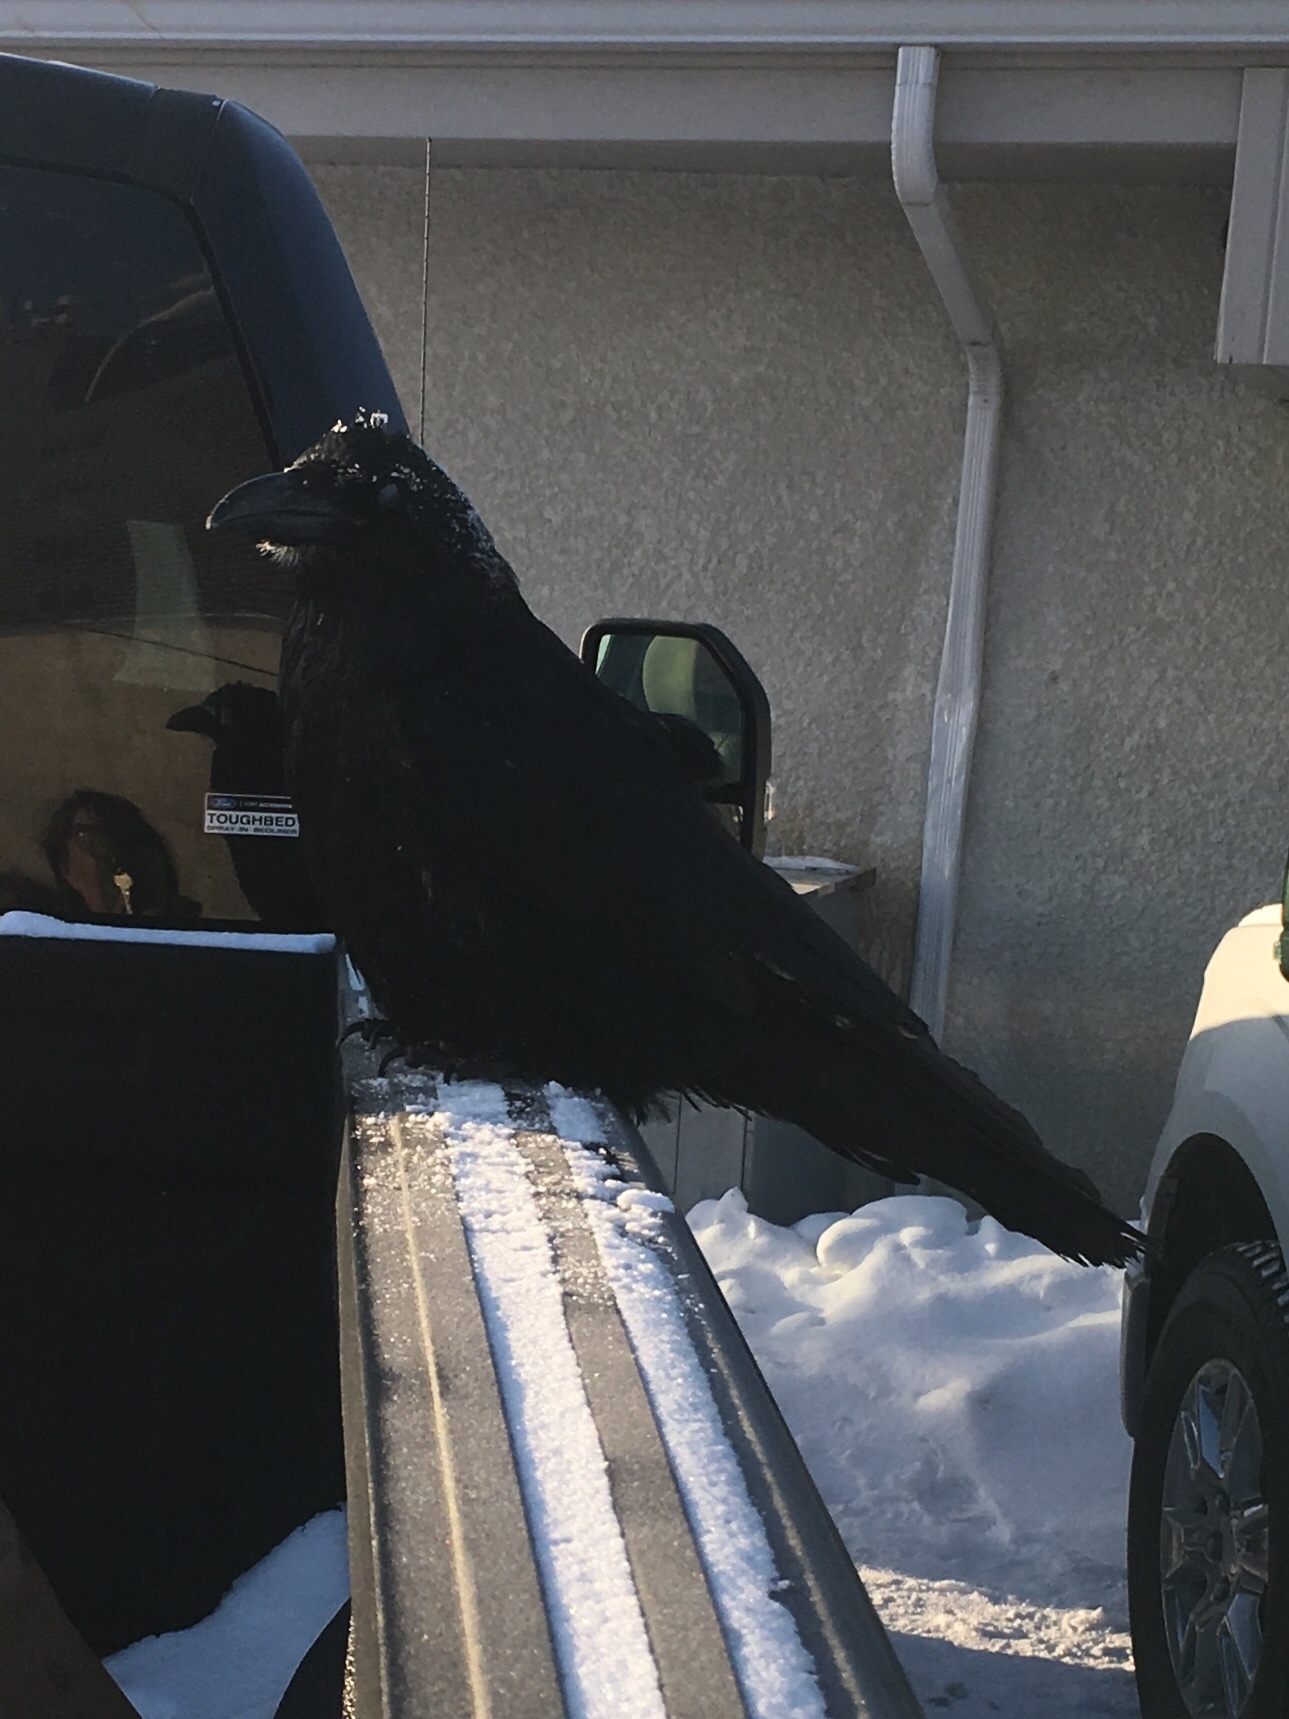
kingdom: Animalia
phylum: Chordata
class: Aves
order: Passeriformes
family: Corvidae
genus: Corvus
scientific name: Corvus corax
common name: Common raven
